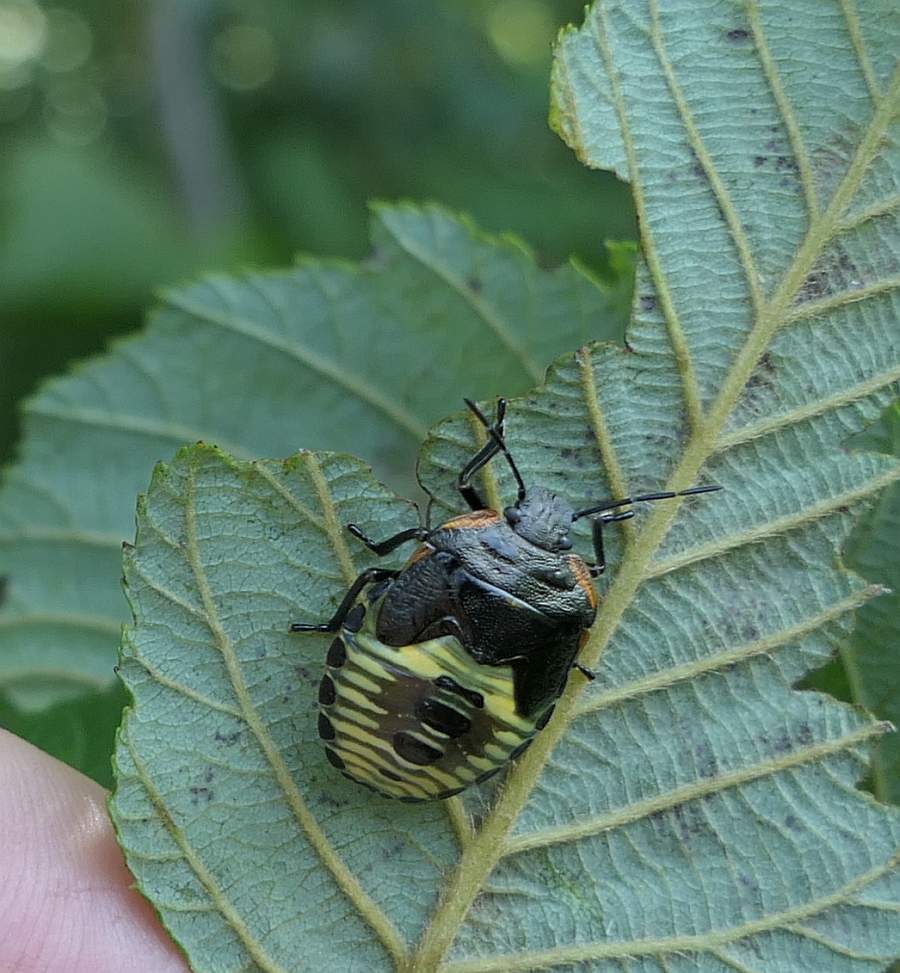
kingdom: Animalia
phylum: Arthropoda
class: Insecta
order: Hemiptera
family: Pentatomidae
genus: Chinavia
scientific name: Chinavia hilaris
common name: Green stink bug
